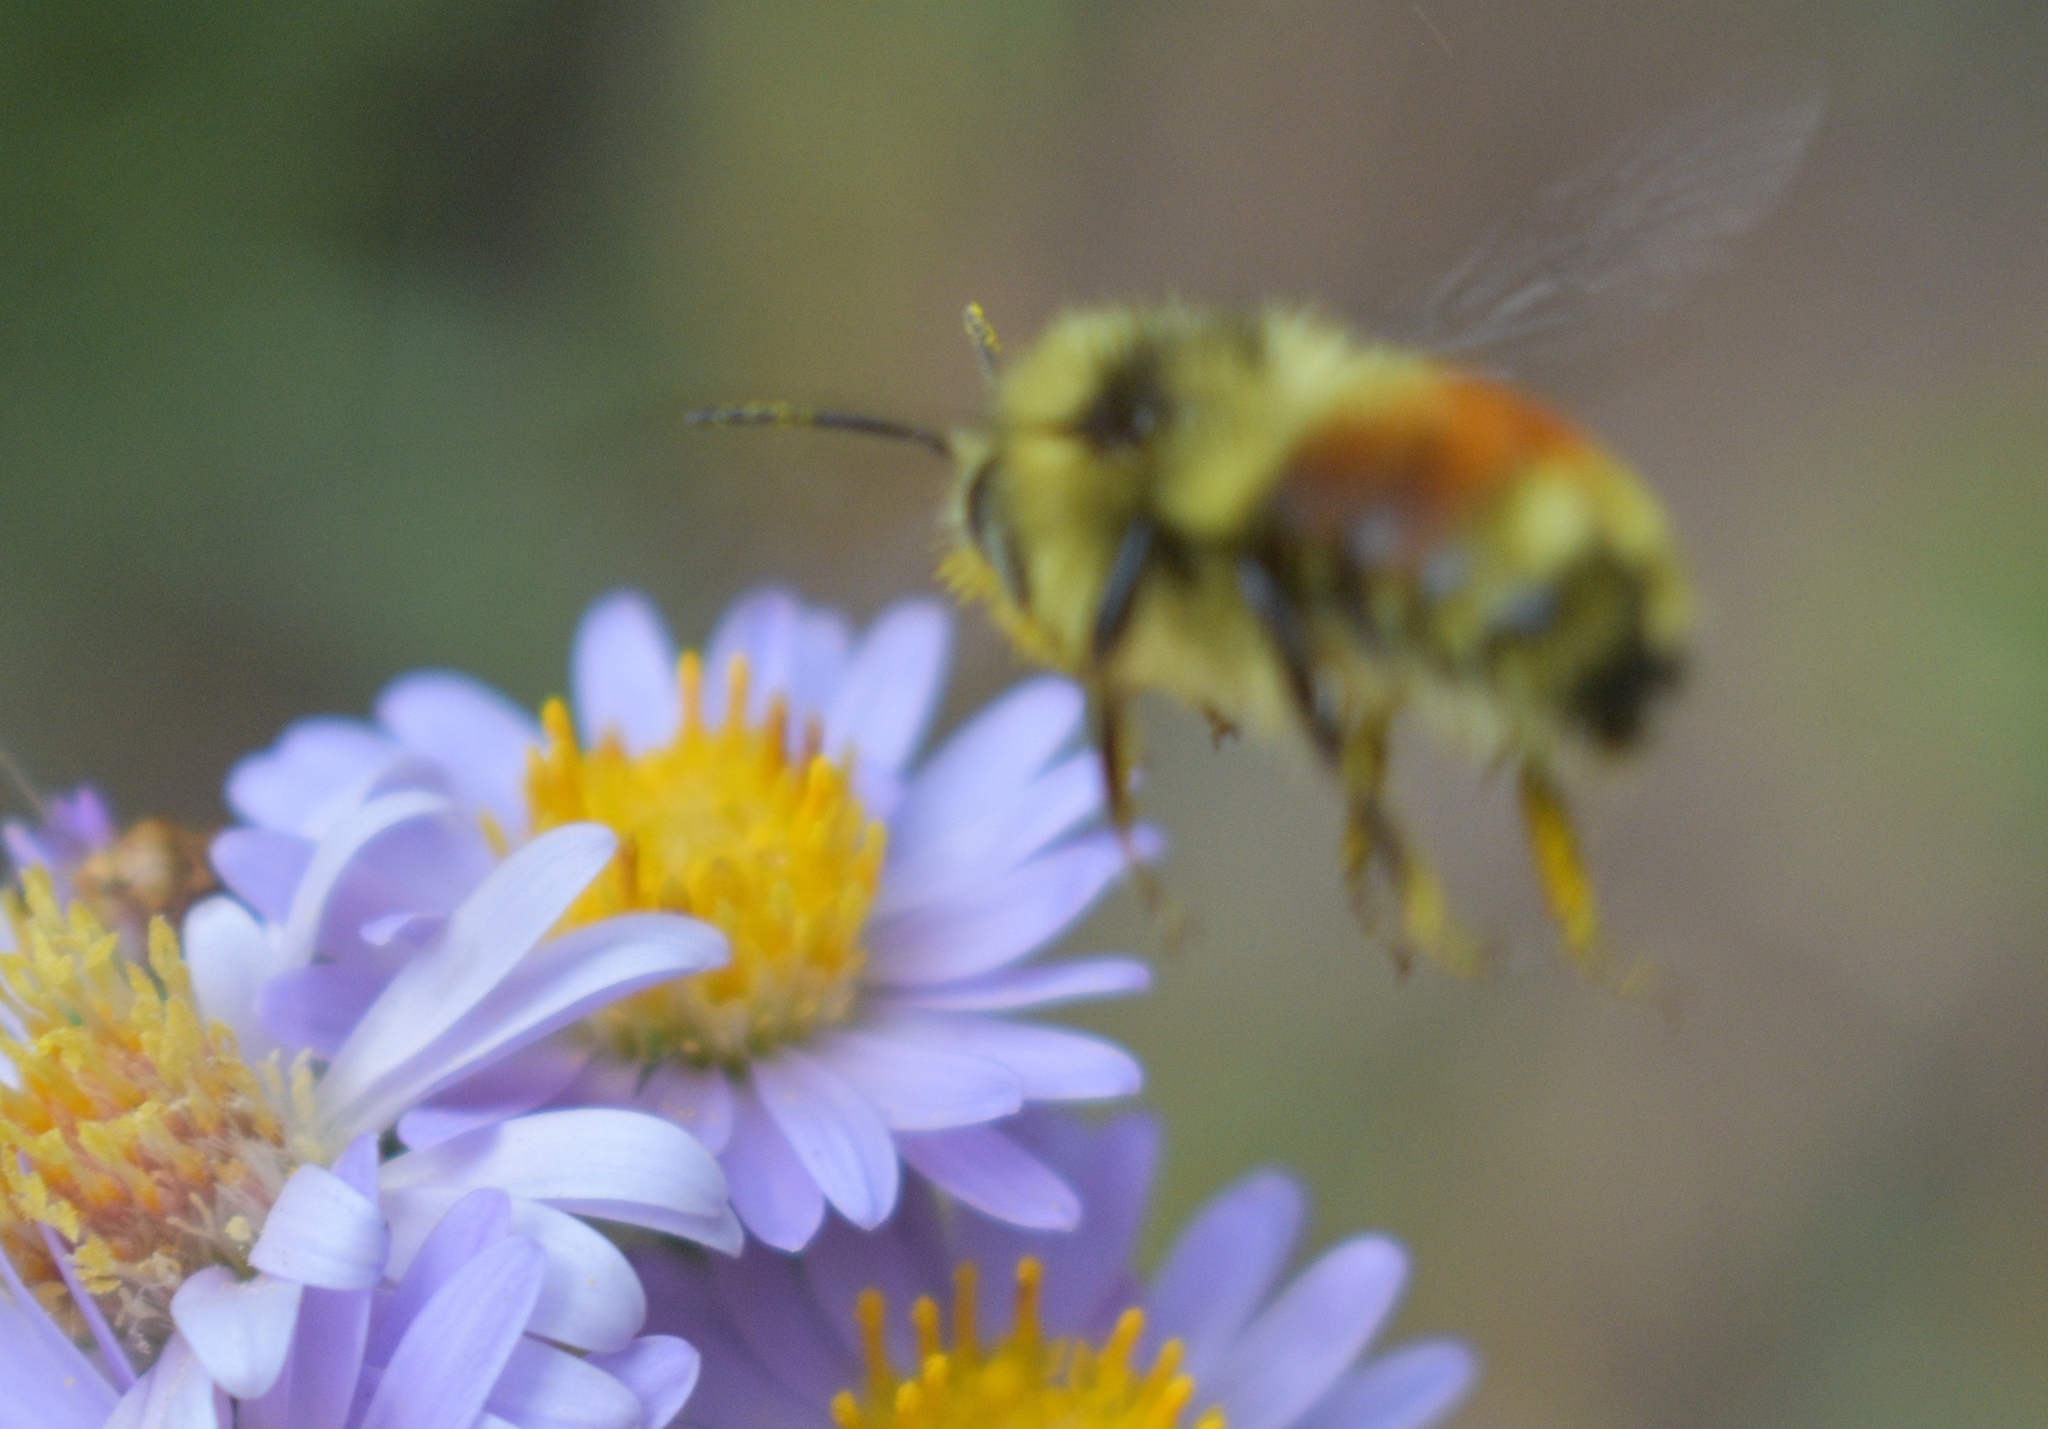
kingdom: Animalia
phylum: Arthropoda
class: Insecta
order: Hymenoptera
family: Apidae
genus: Pyrobombus
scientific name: Pyrobombus
